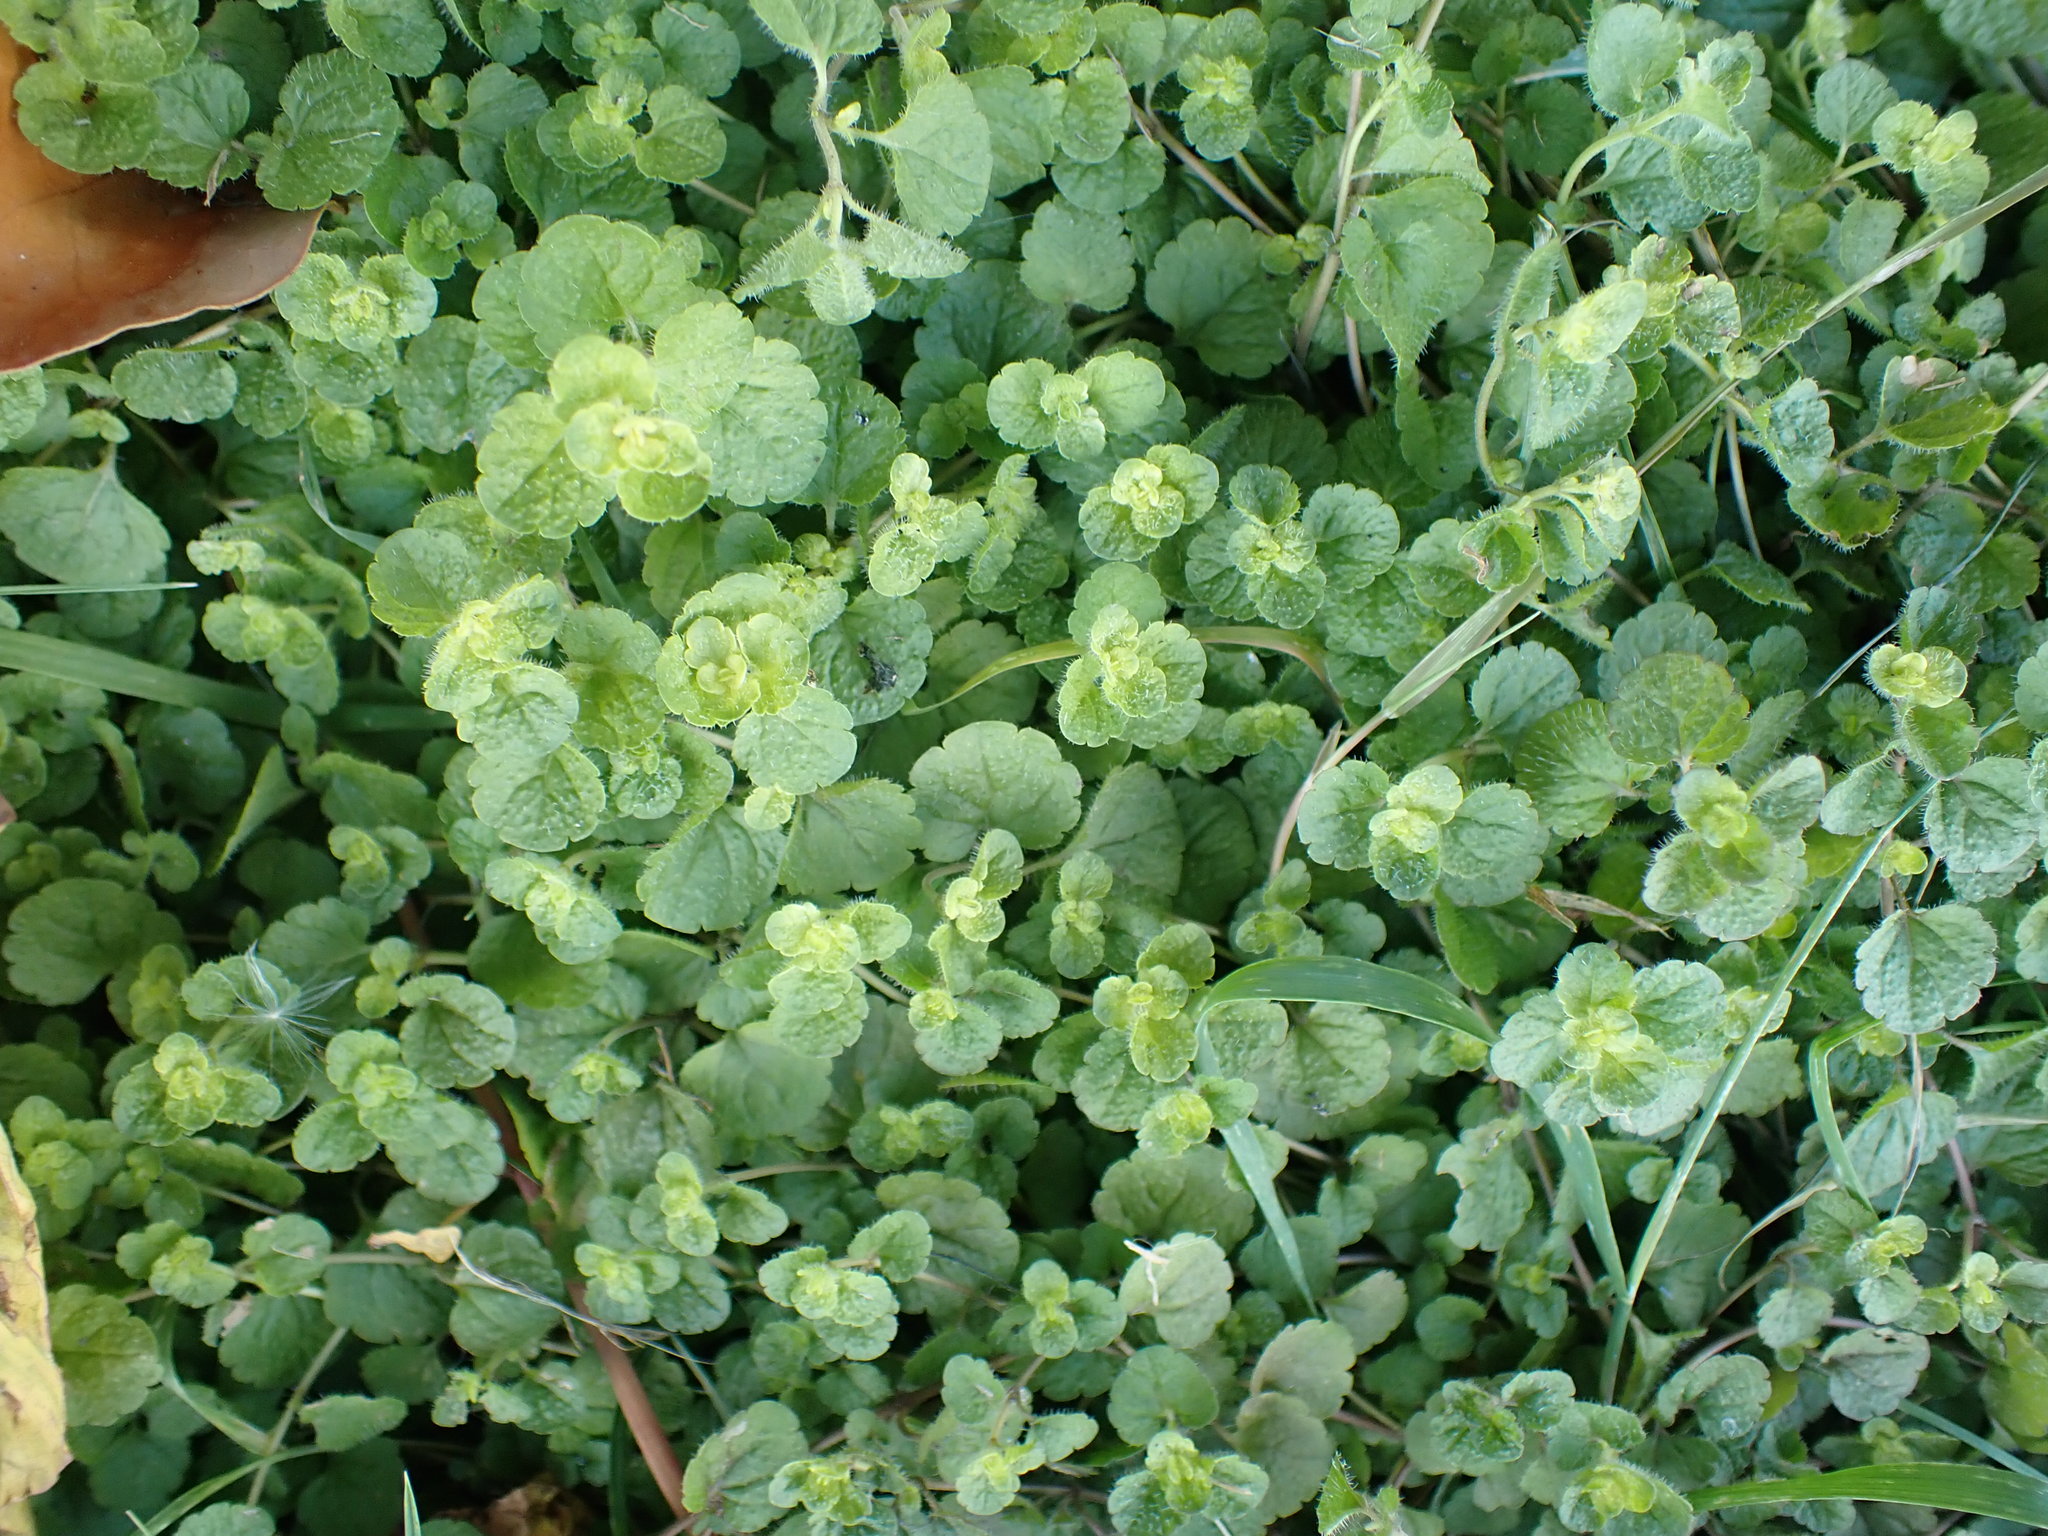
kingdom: Plantae
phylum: Tracheophyta
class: Magnoliopsida
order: Lamiales
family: Plantaginaceae
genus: Veronica
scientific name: Veronica filiformis
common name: Slender speedwell
